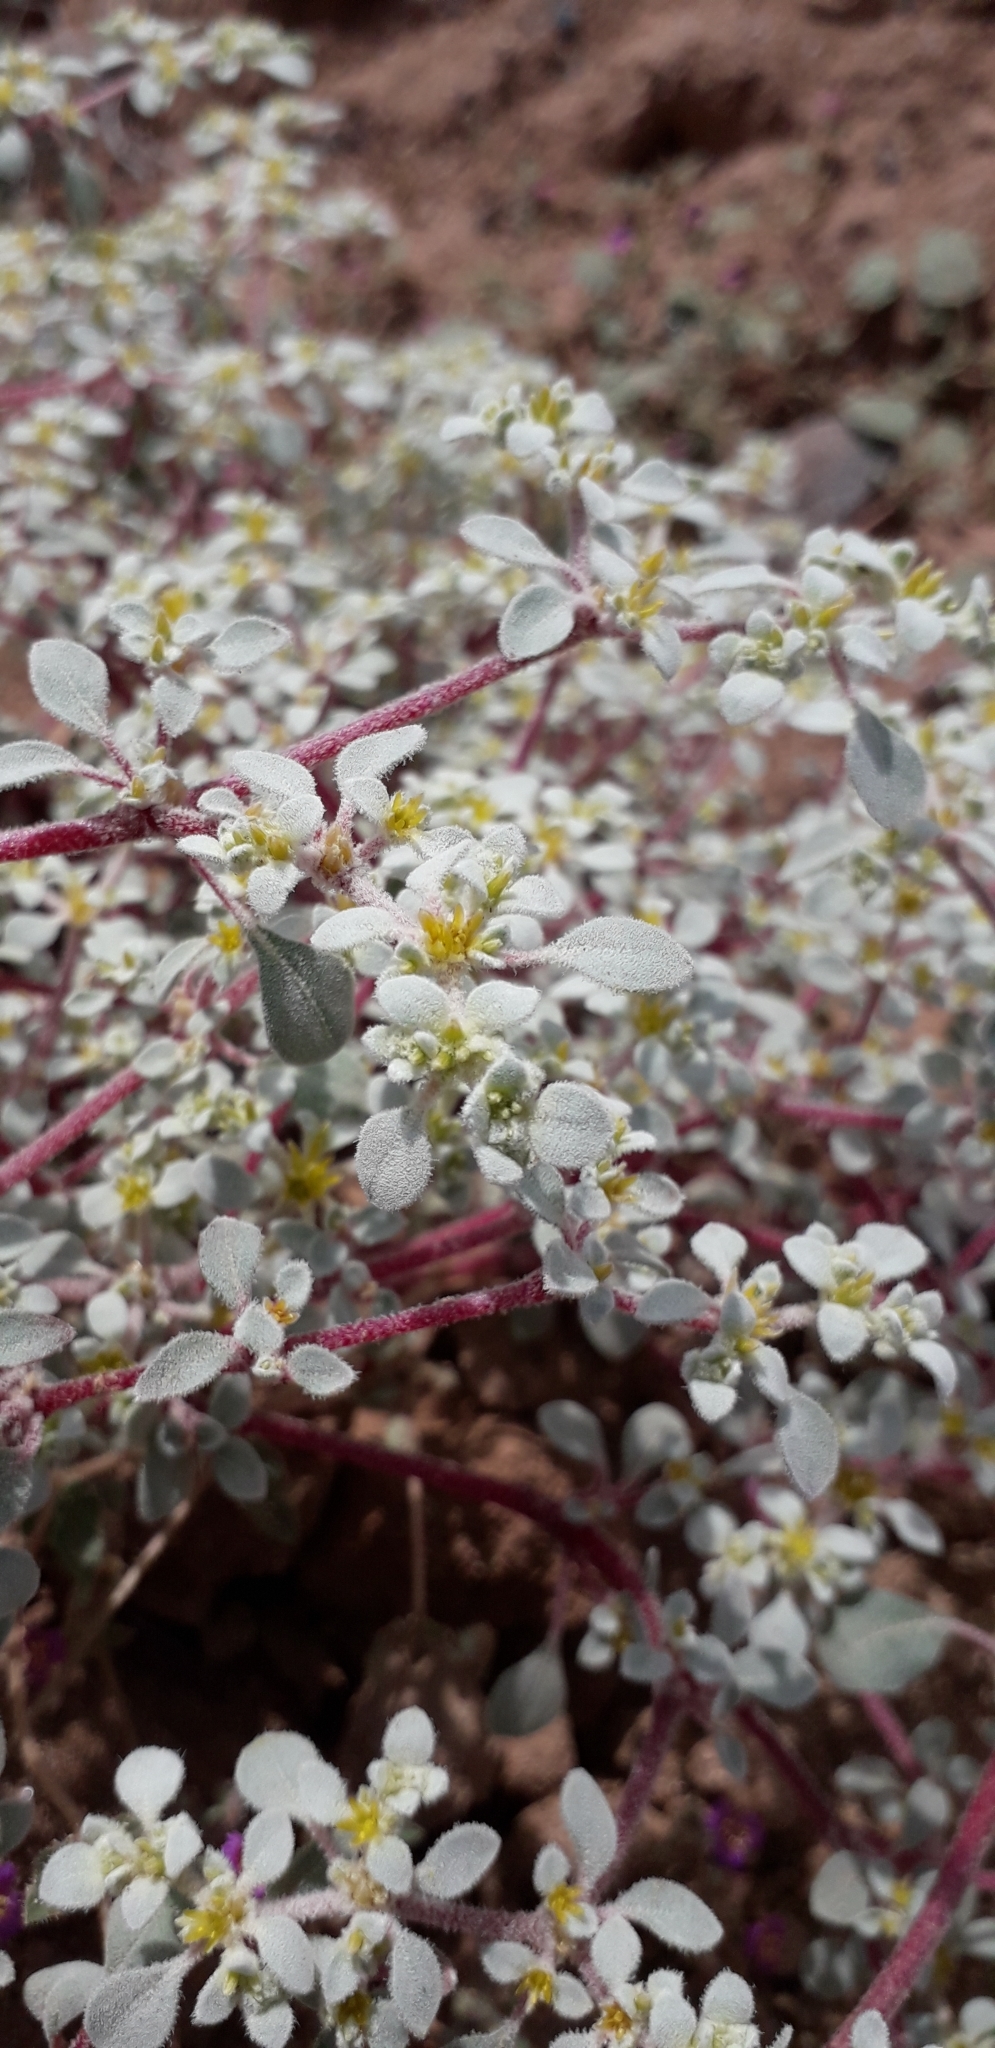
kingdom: Plantae
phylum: Tracheophyta
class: Magnoliopsida
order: Caryophyllales
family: Amaranthaceae
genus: Tidestromia
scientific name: Tidestromia lanuginosa
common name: Woolly tidestromia
